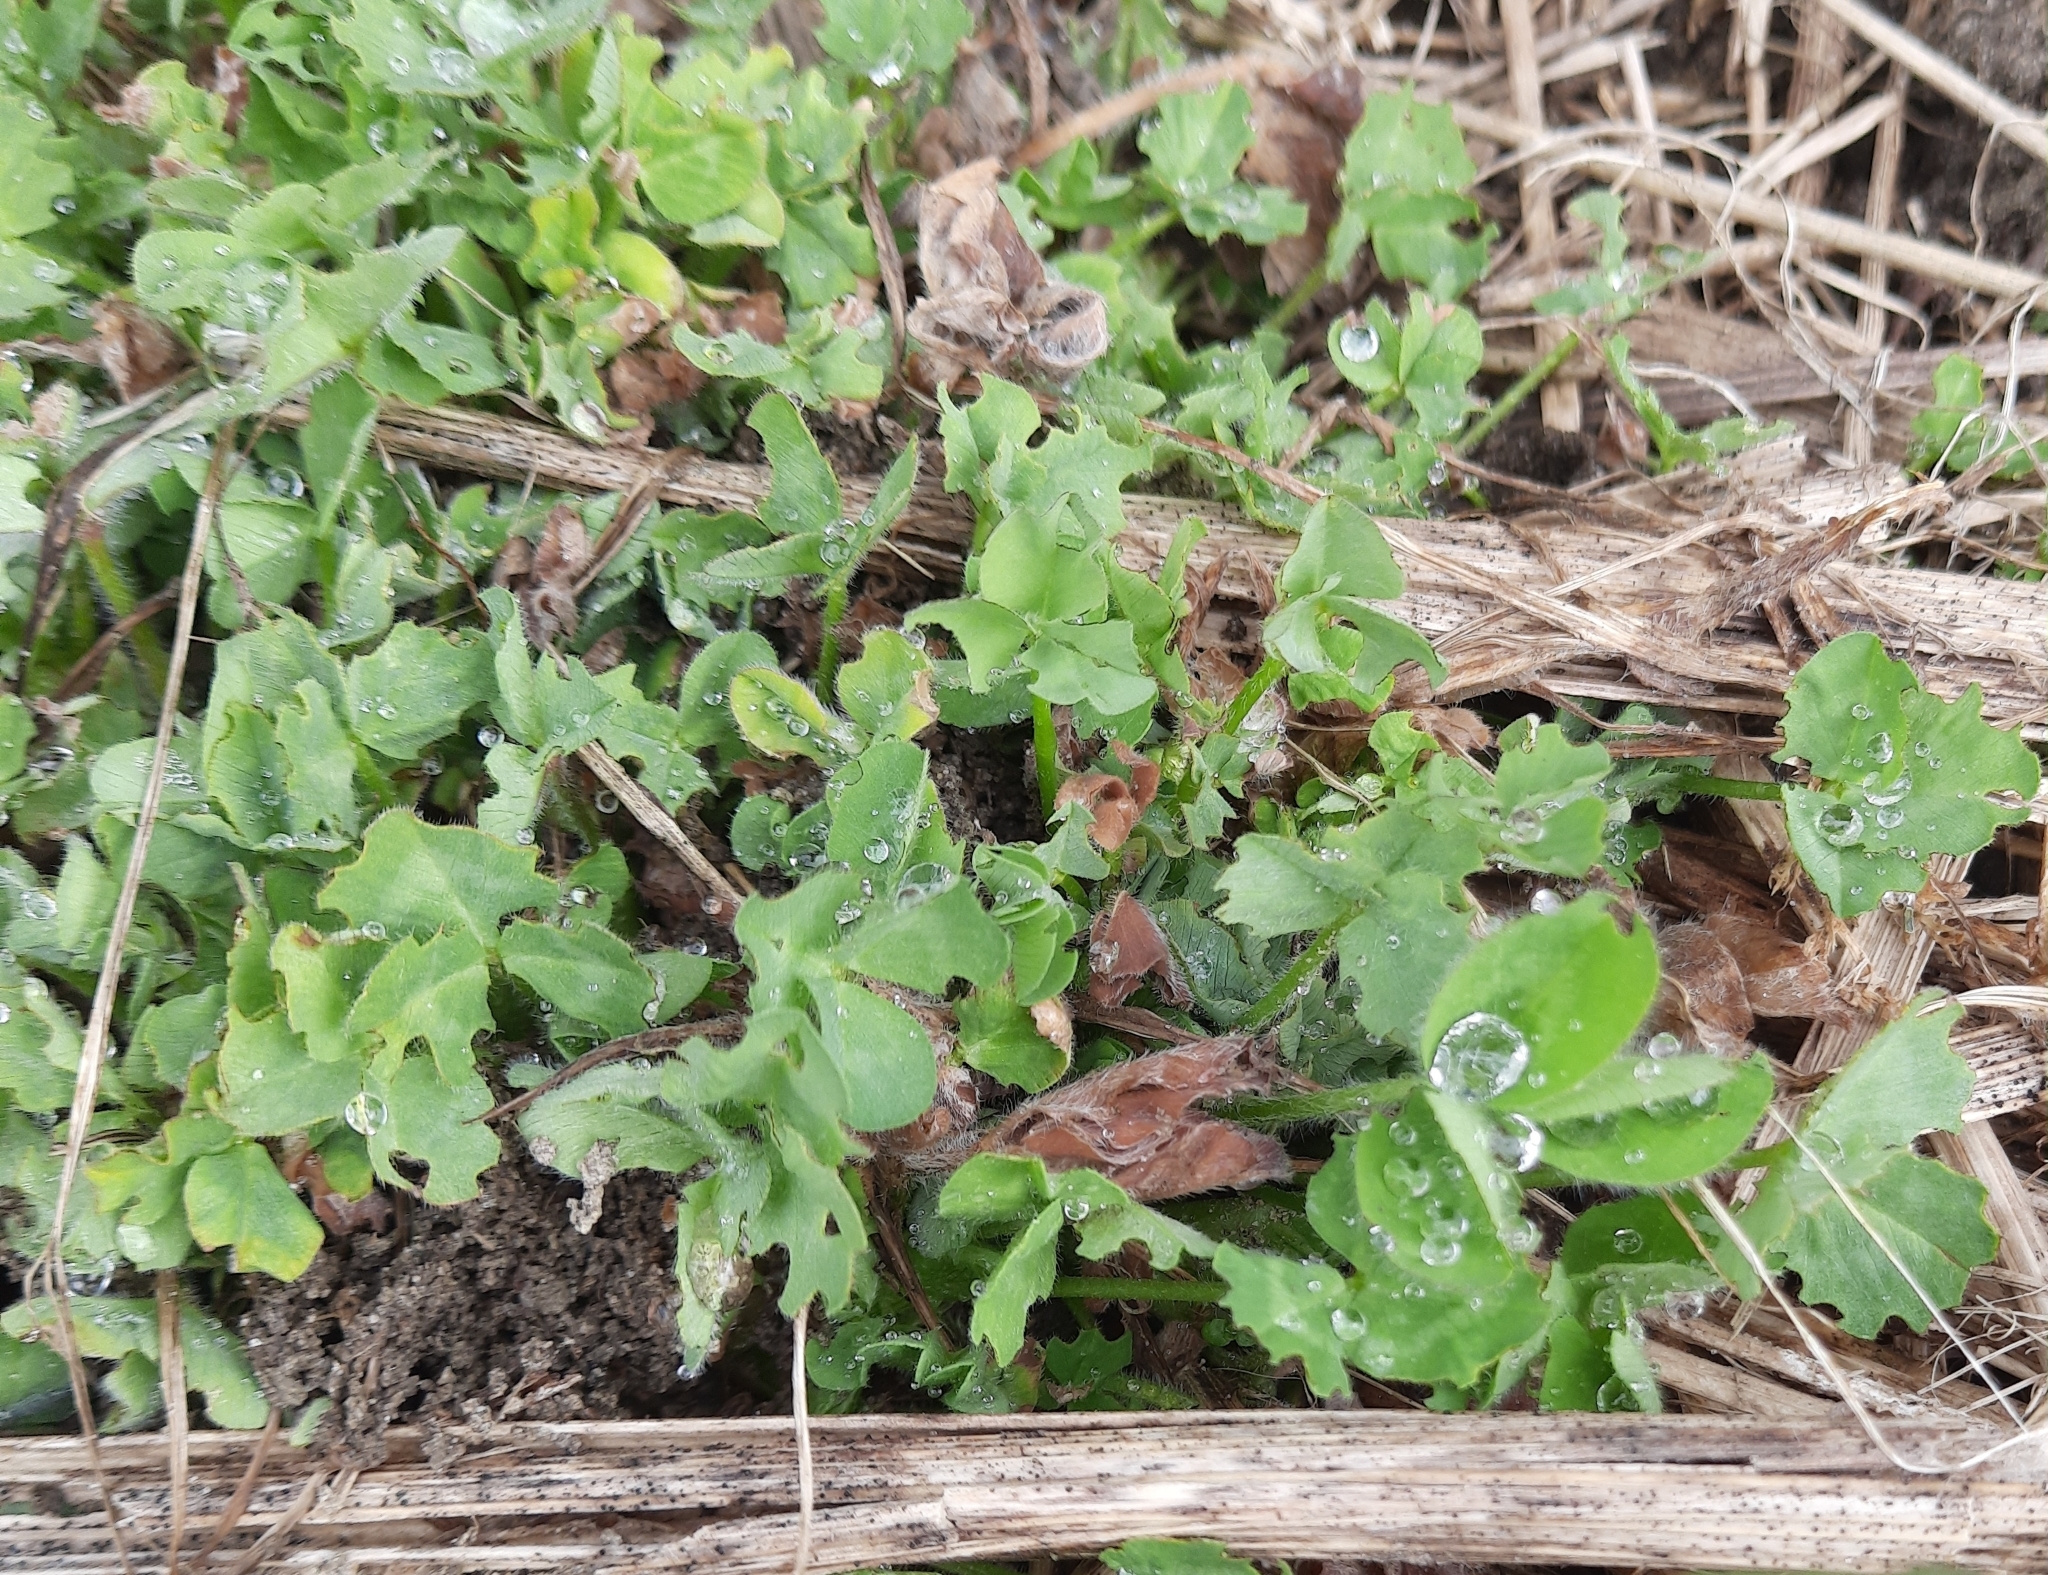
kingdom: Plantae
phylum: Tracheophyta
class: Magnoliopsida
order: Fabales
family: Fabaceae
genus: Trifolium
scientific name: Trifolium pratense
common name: Red clover
